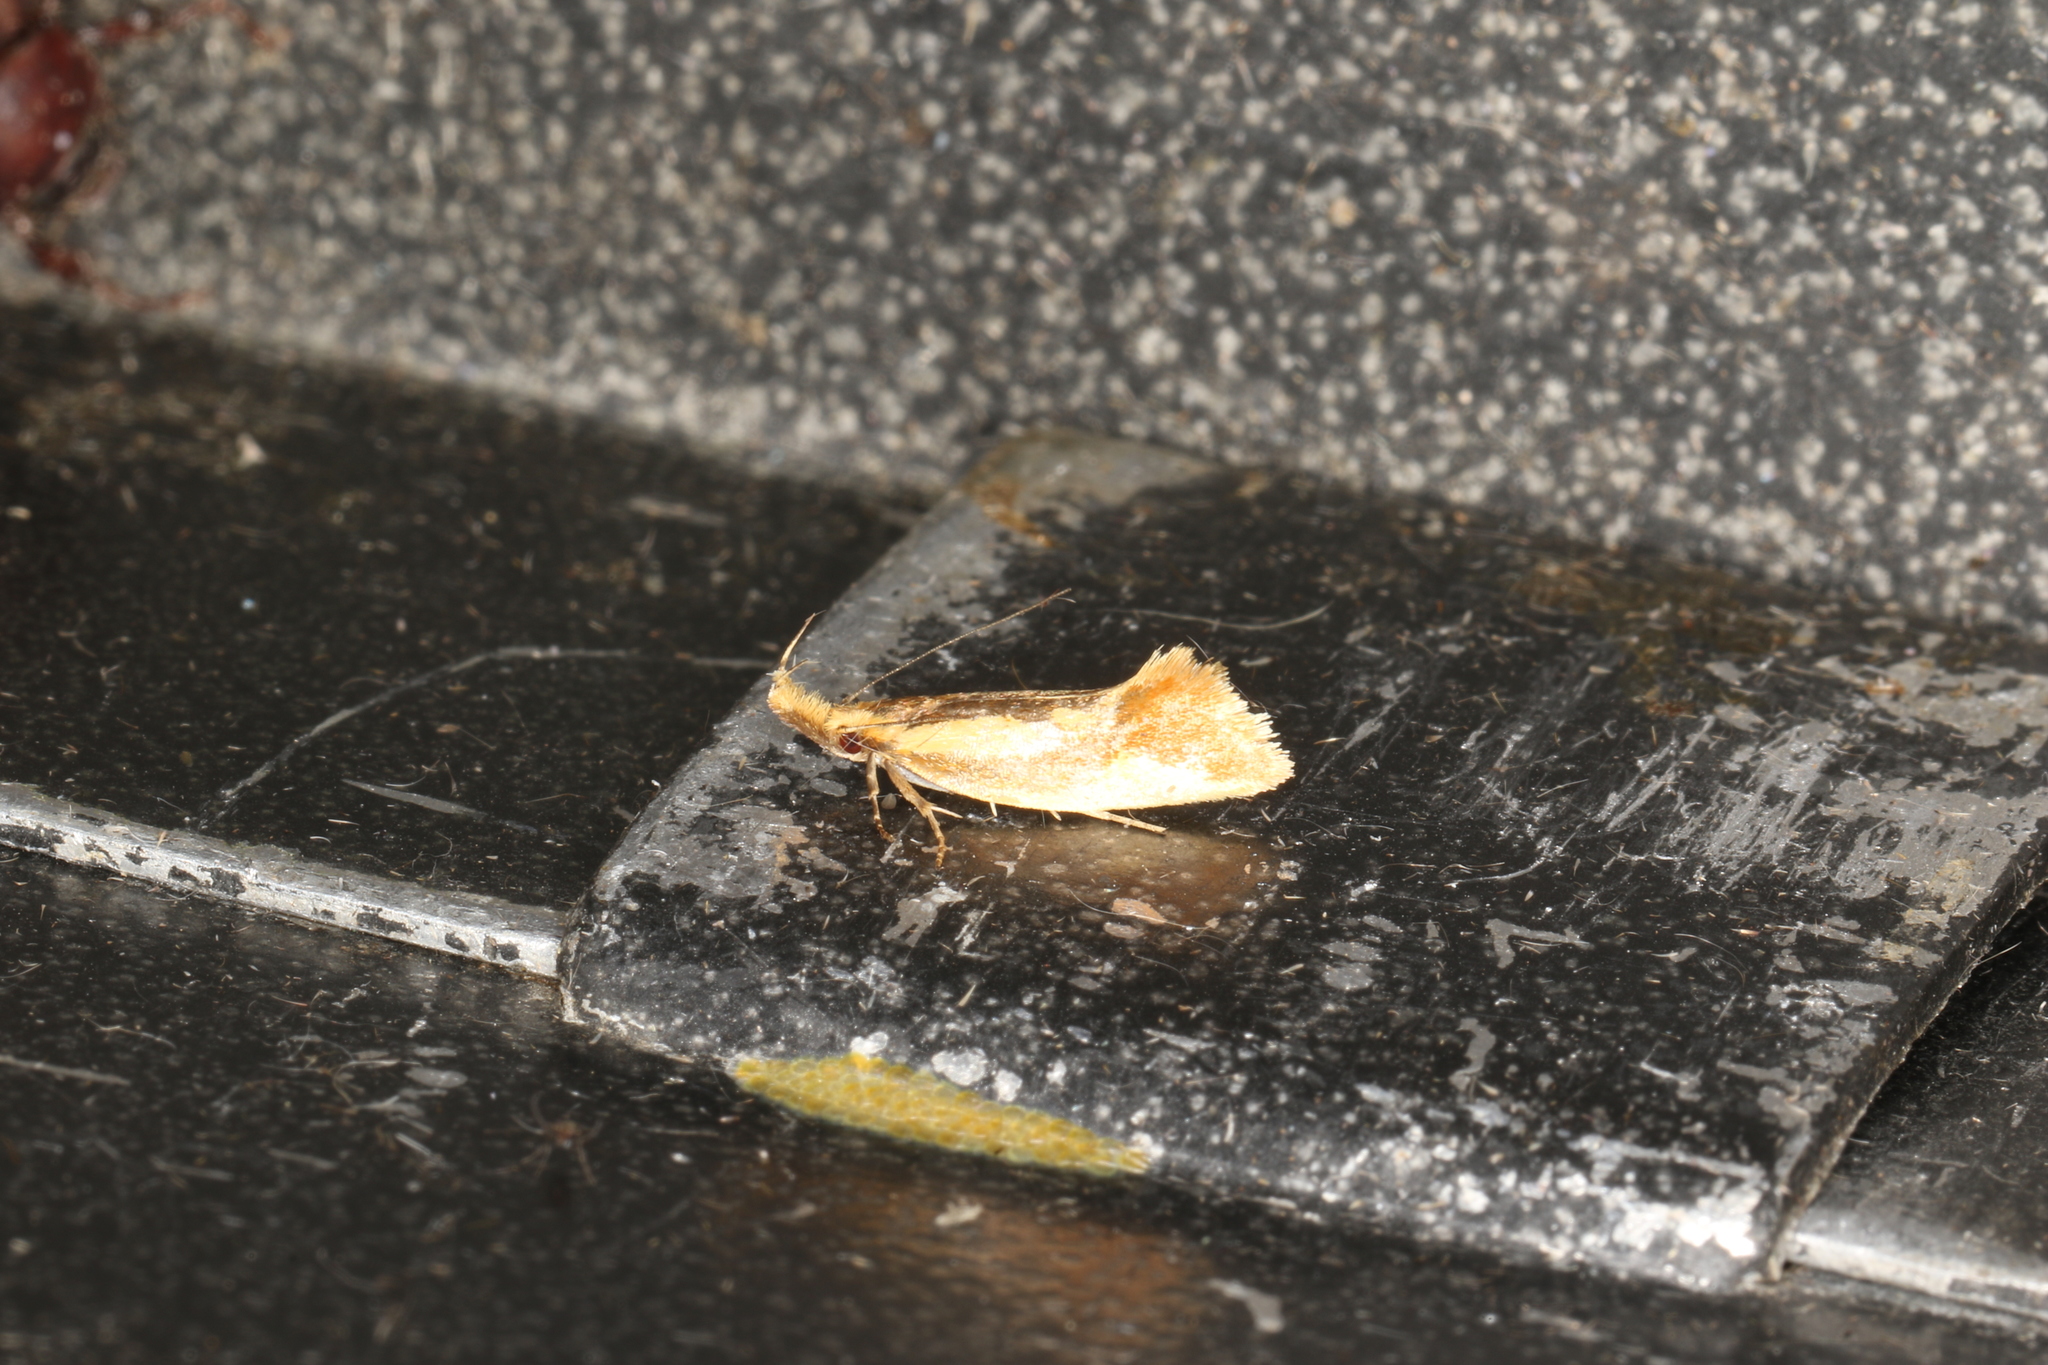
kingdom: Animalia
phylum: Arthropoda
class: Insecta
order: Lepidoptera
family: Oecophoridae
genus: Thema
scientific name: Thema psammoxantha
